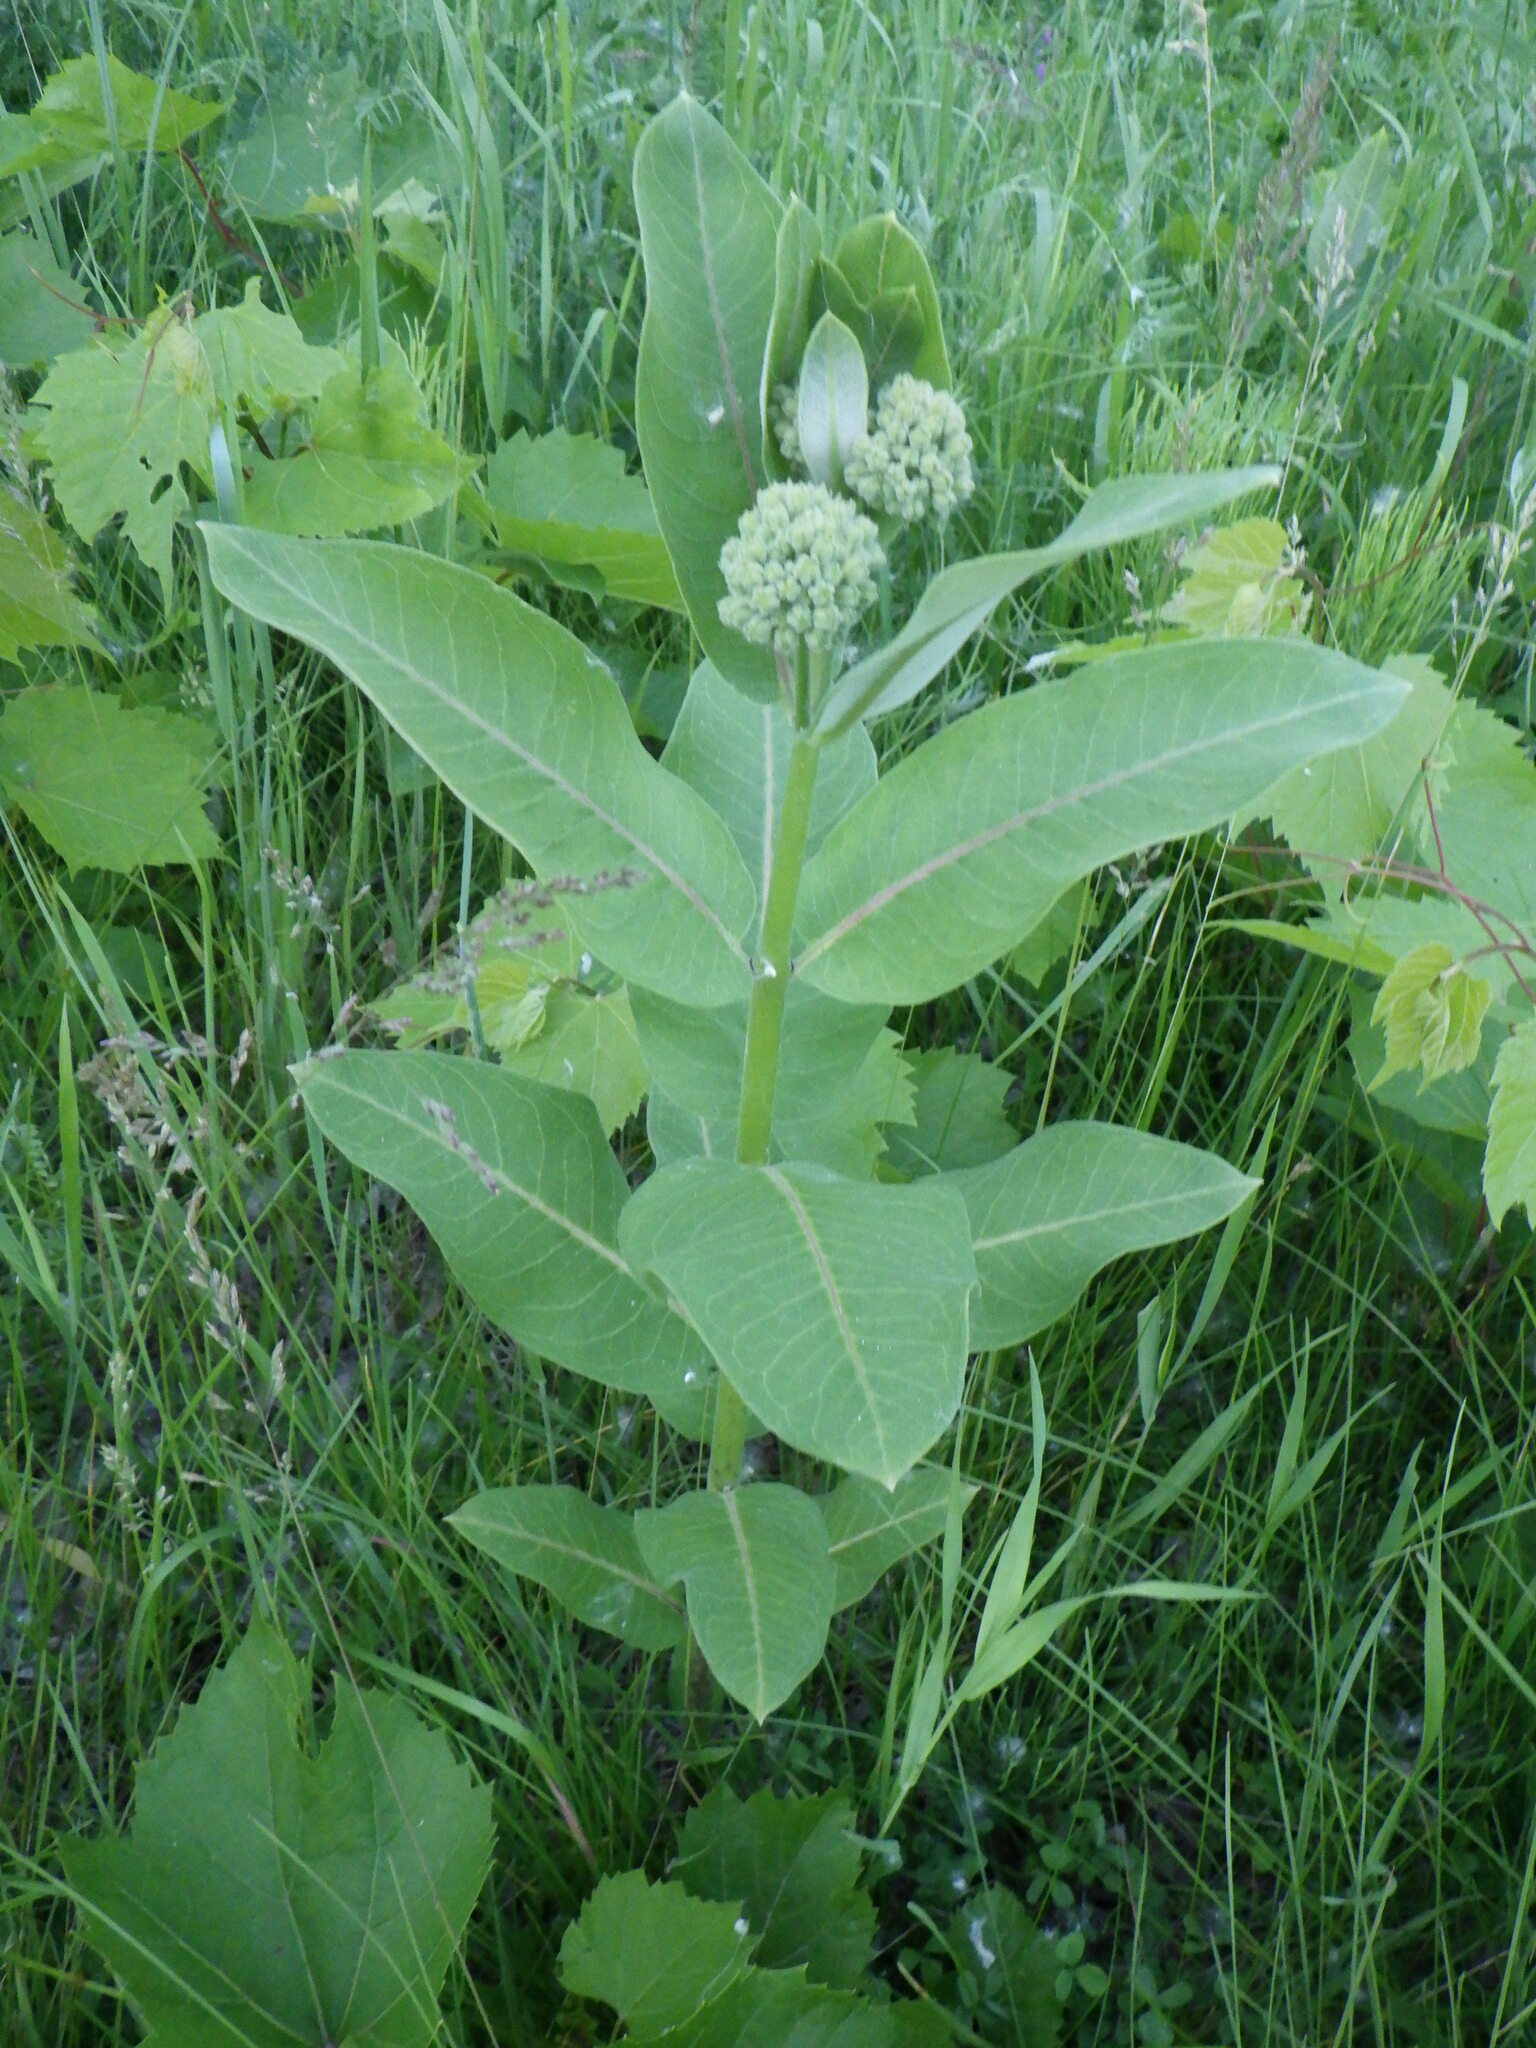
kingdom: Plantae
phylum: Tracheophyta
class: Magnoliopsida
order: Gentianales
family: Apocynaceae
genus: Asclepias
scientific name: Asclepias syriaca
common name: Common milkweed
